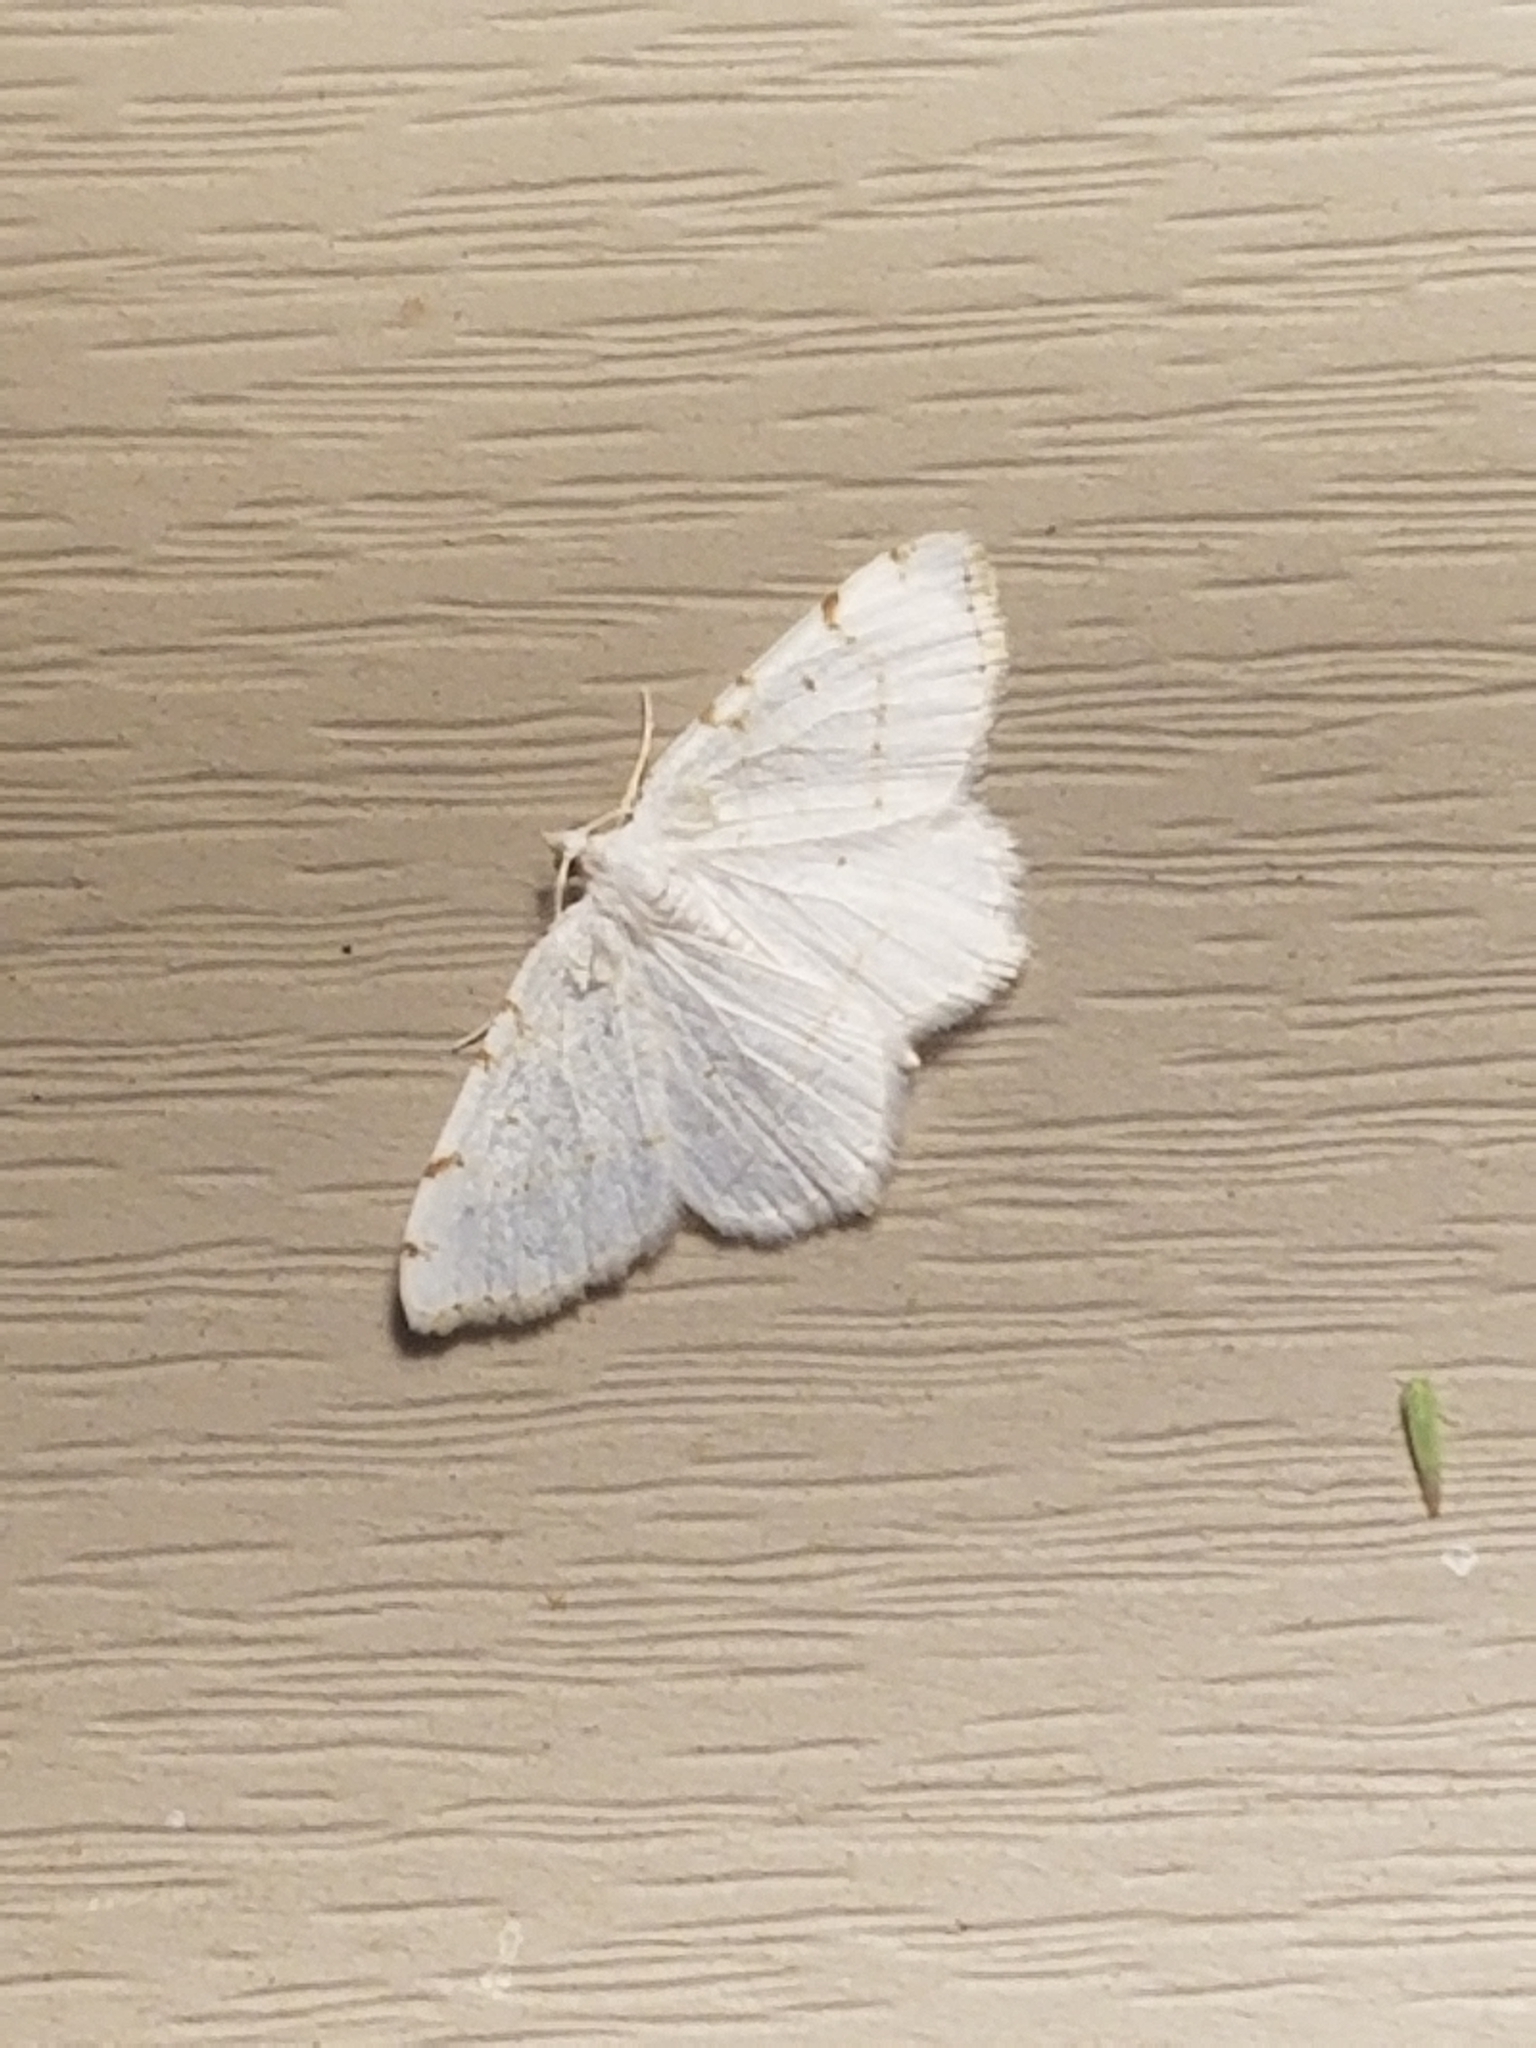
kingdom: Animalia
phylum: Arthropoda
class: Insecta
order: Lepidoptera
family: Geometridae
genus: Macaria
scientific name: Macaria pustularia
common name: Lesser maple spanworm moth
